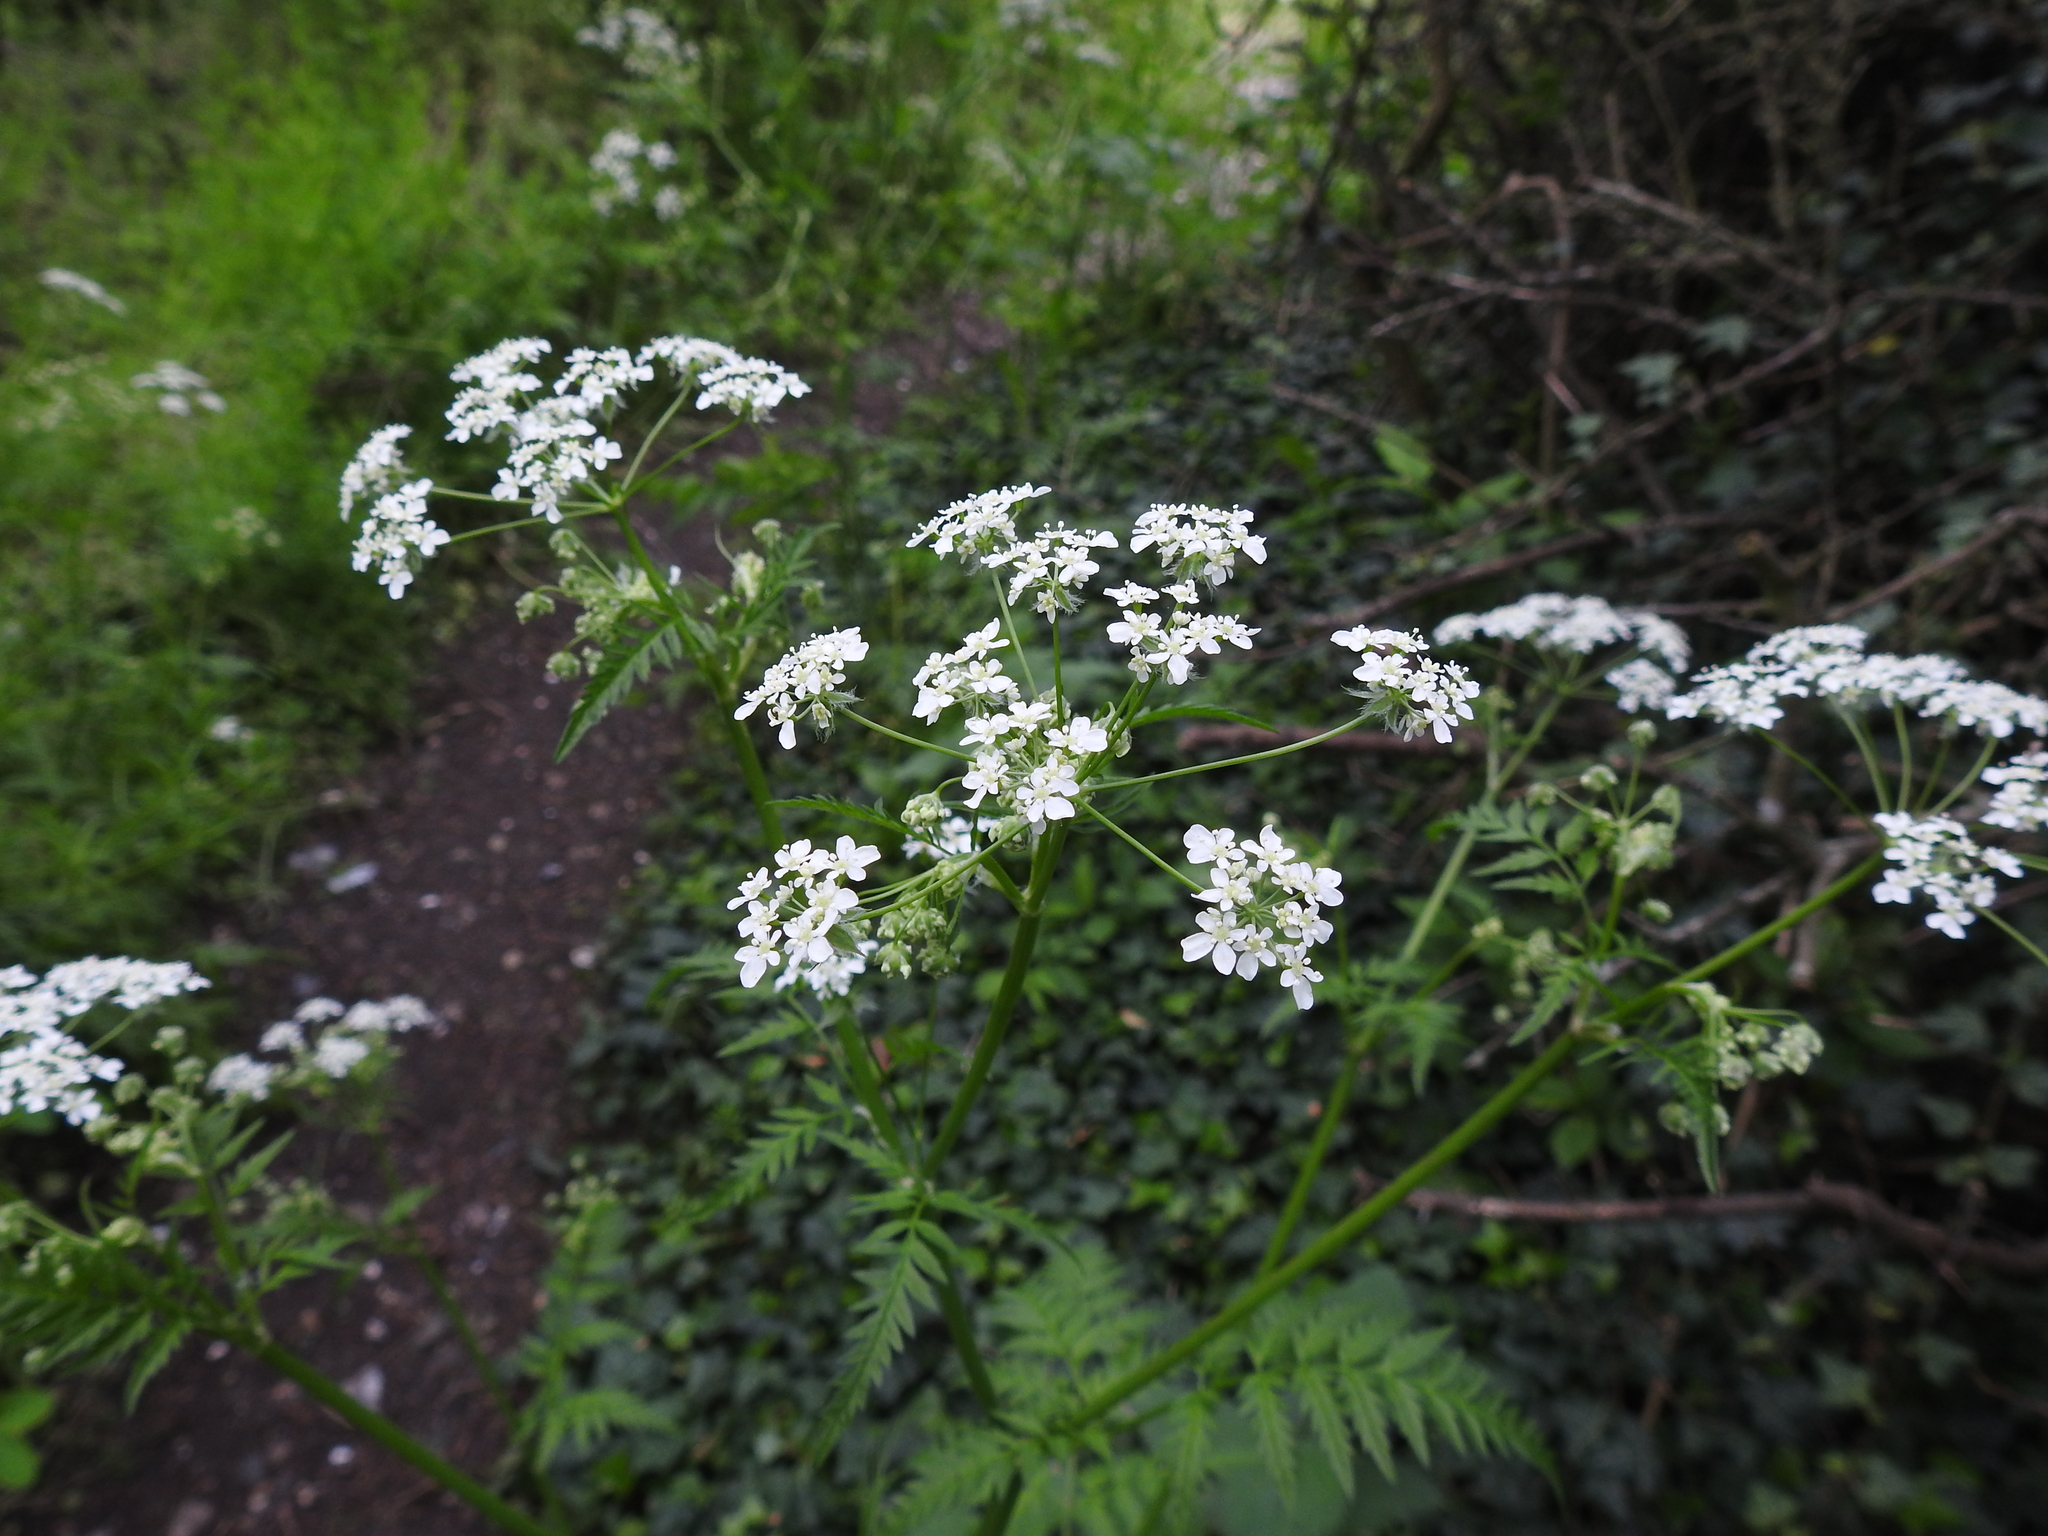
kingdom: Plantae
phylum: Tracheophyta
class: Magnoliopsida
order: Apiales
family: Apiaceae
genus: Anthriscus
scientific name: Anthriscus sylvestris
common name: Cow parsley
